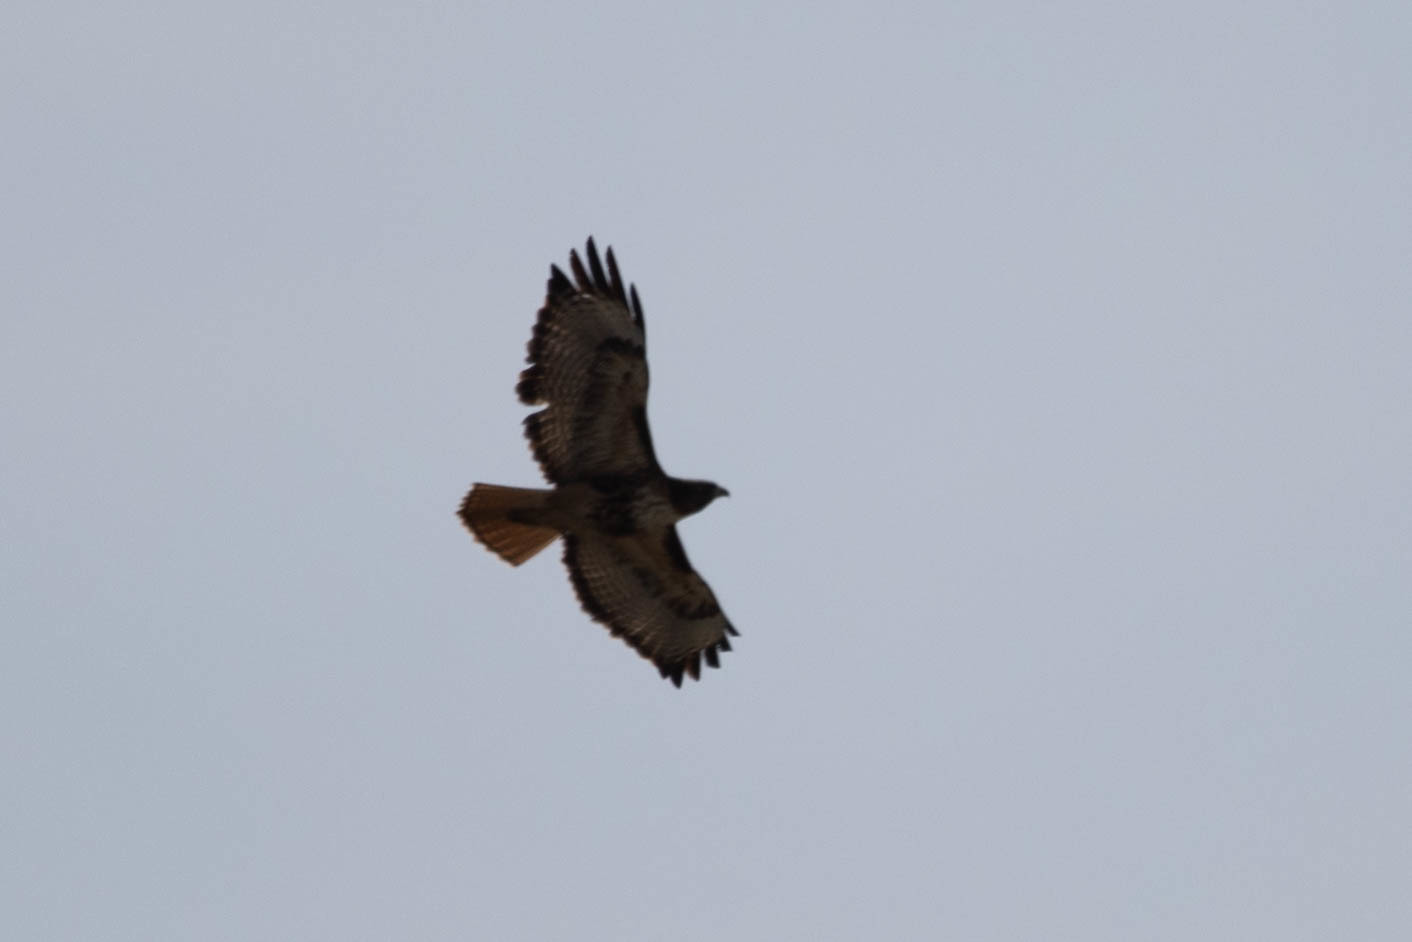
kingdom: Animalia
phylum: Chordata
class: Aves
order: Accipitriformes
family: Accipitridae
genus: Buteo
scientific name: Buteo jamaicensis
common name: Red-tailed hawk
